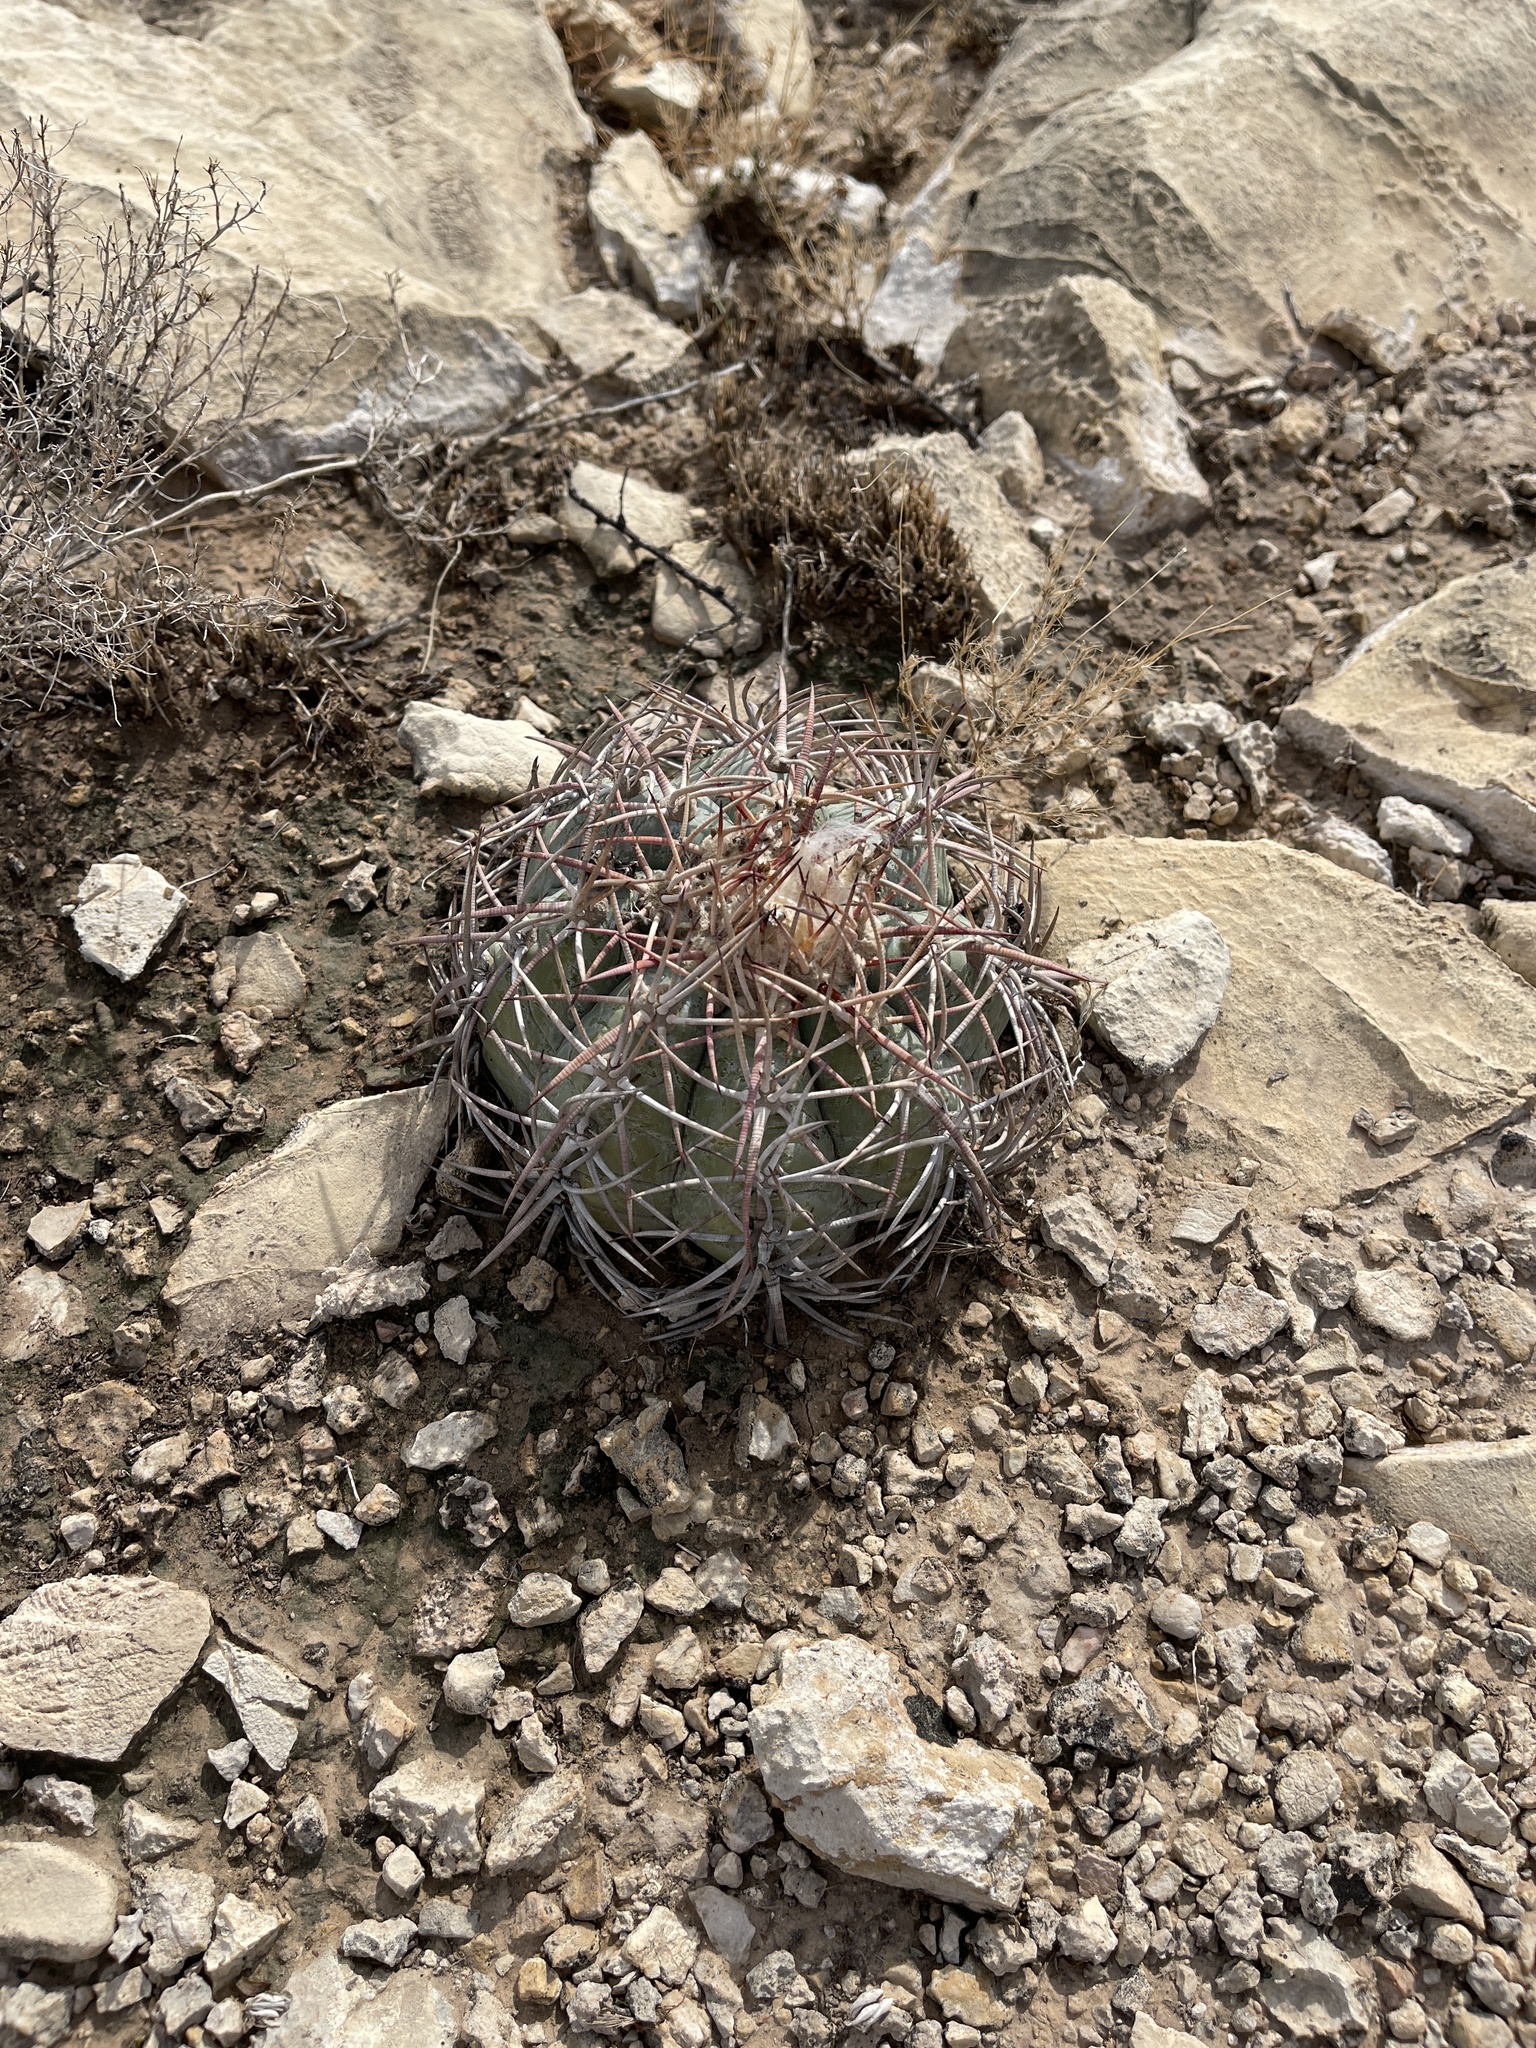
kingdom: Plantae
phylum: Tracheophyta
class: Magnoliopsida
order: Caryophyllales
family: Cactaceae
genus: Echinocactus
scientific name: Echinocactus horizonthalonius
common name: Devilshead
